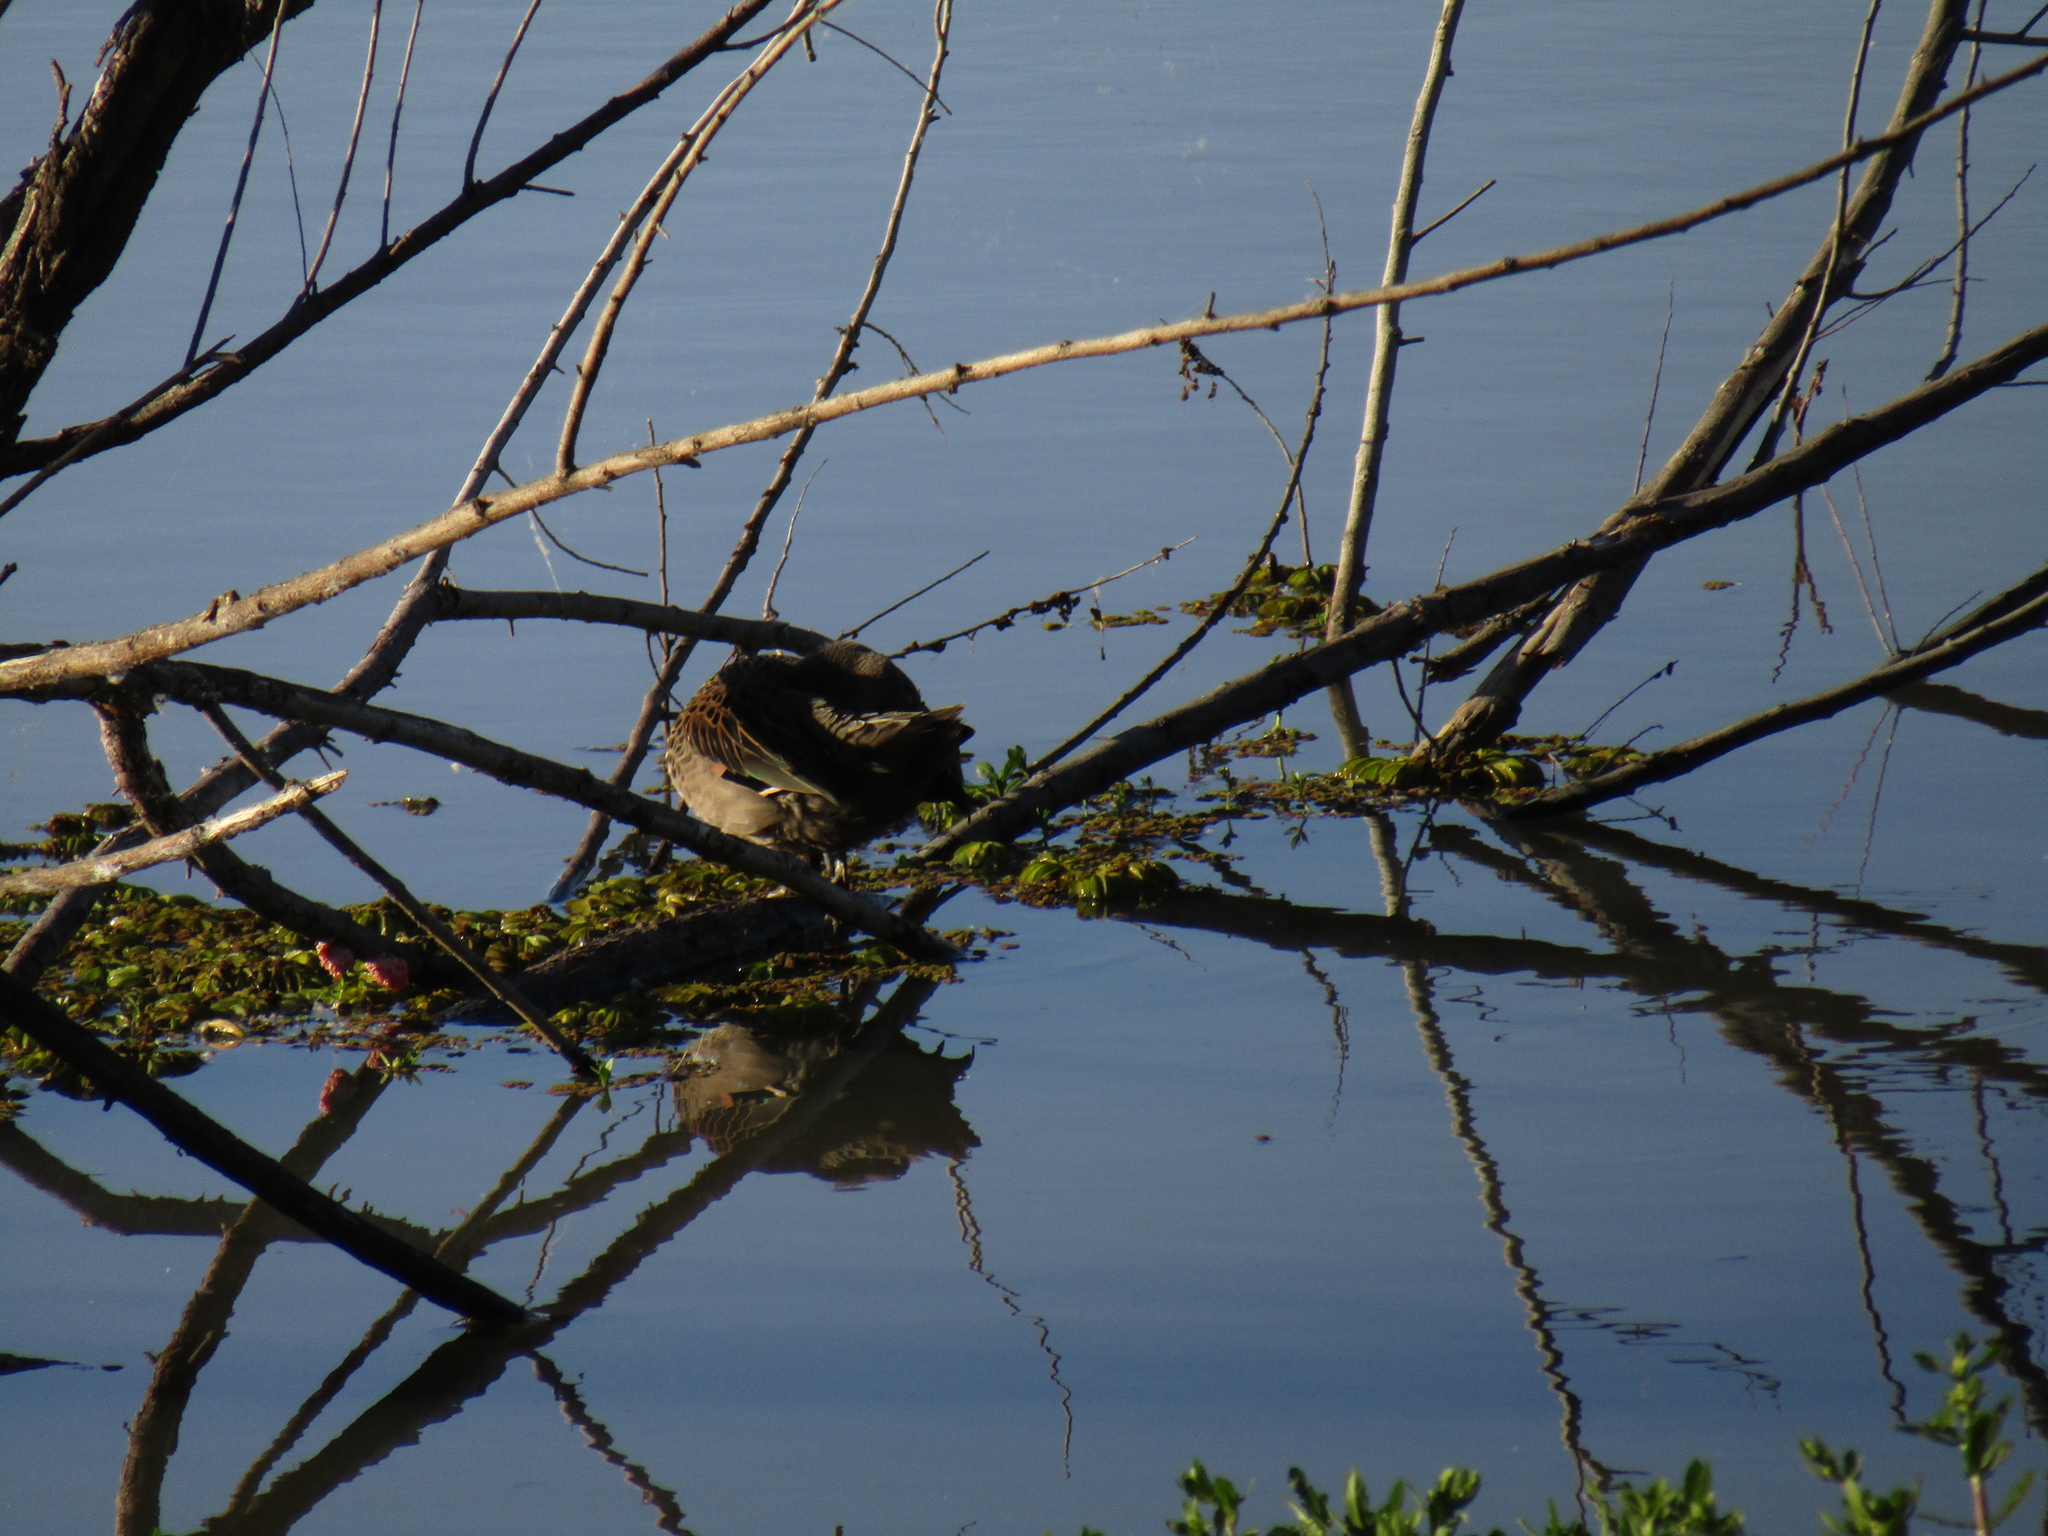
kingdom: Animalia
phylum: Chordata
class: Aves
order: Anseriformes
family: Anatidae
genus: Anas
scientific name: Anas flavirostris
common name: Yellow-billed teal
